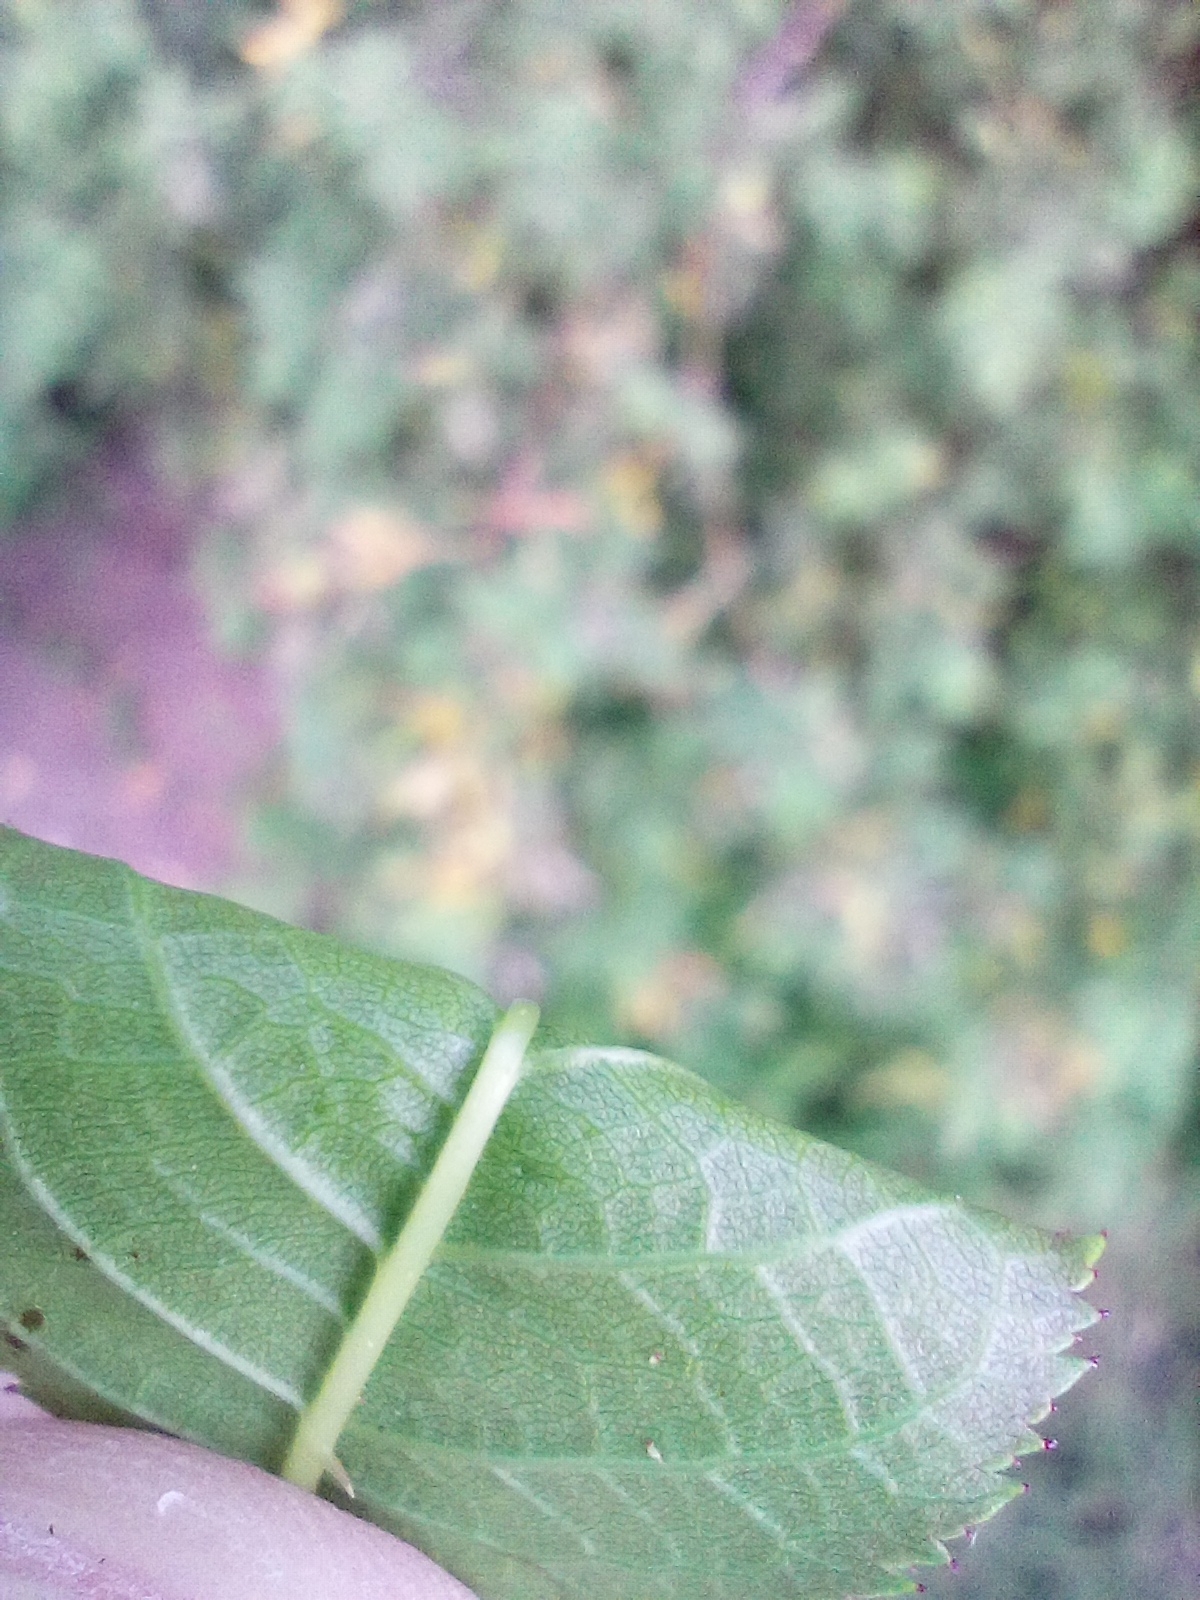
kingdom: Plantae
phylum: Tracheophyta
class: Magnoliopsida
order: Rosales
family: Rosaceae
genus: Rosa
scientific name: Rosa dumalis
